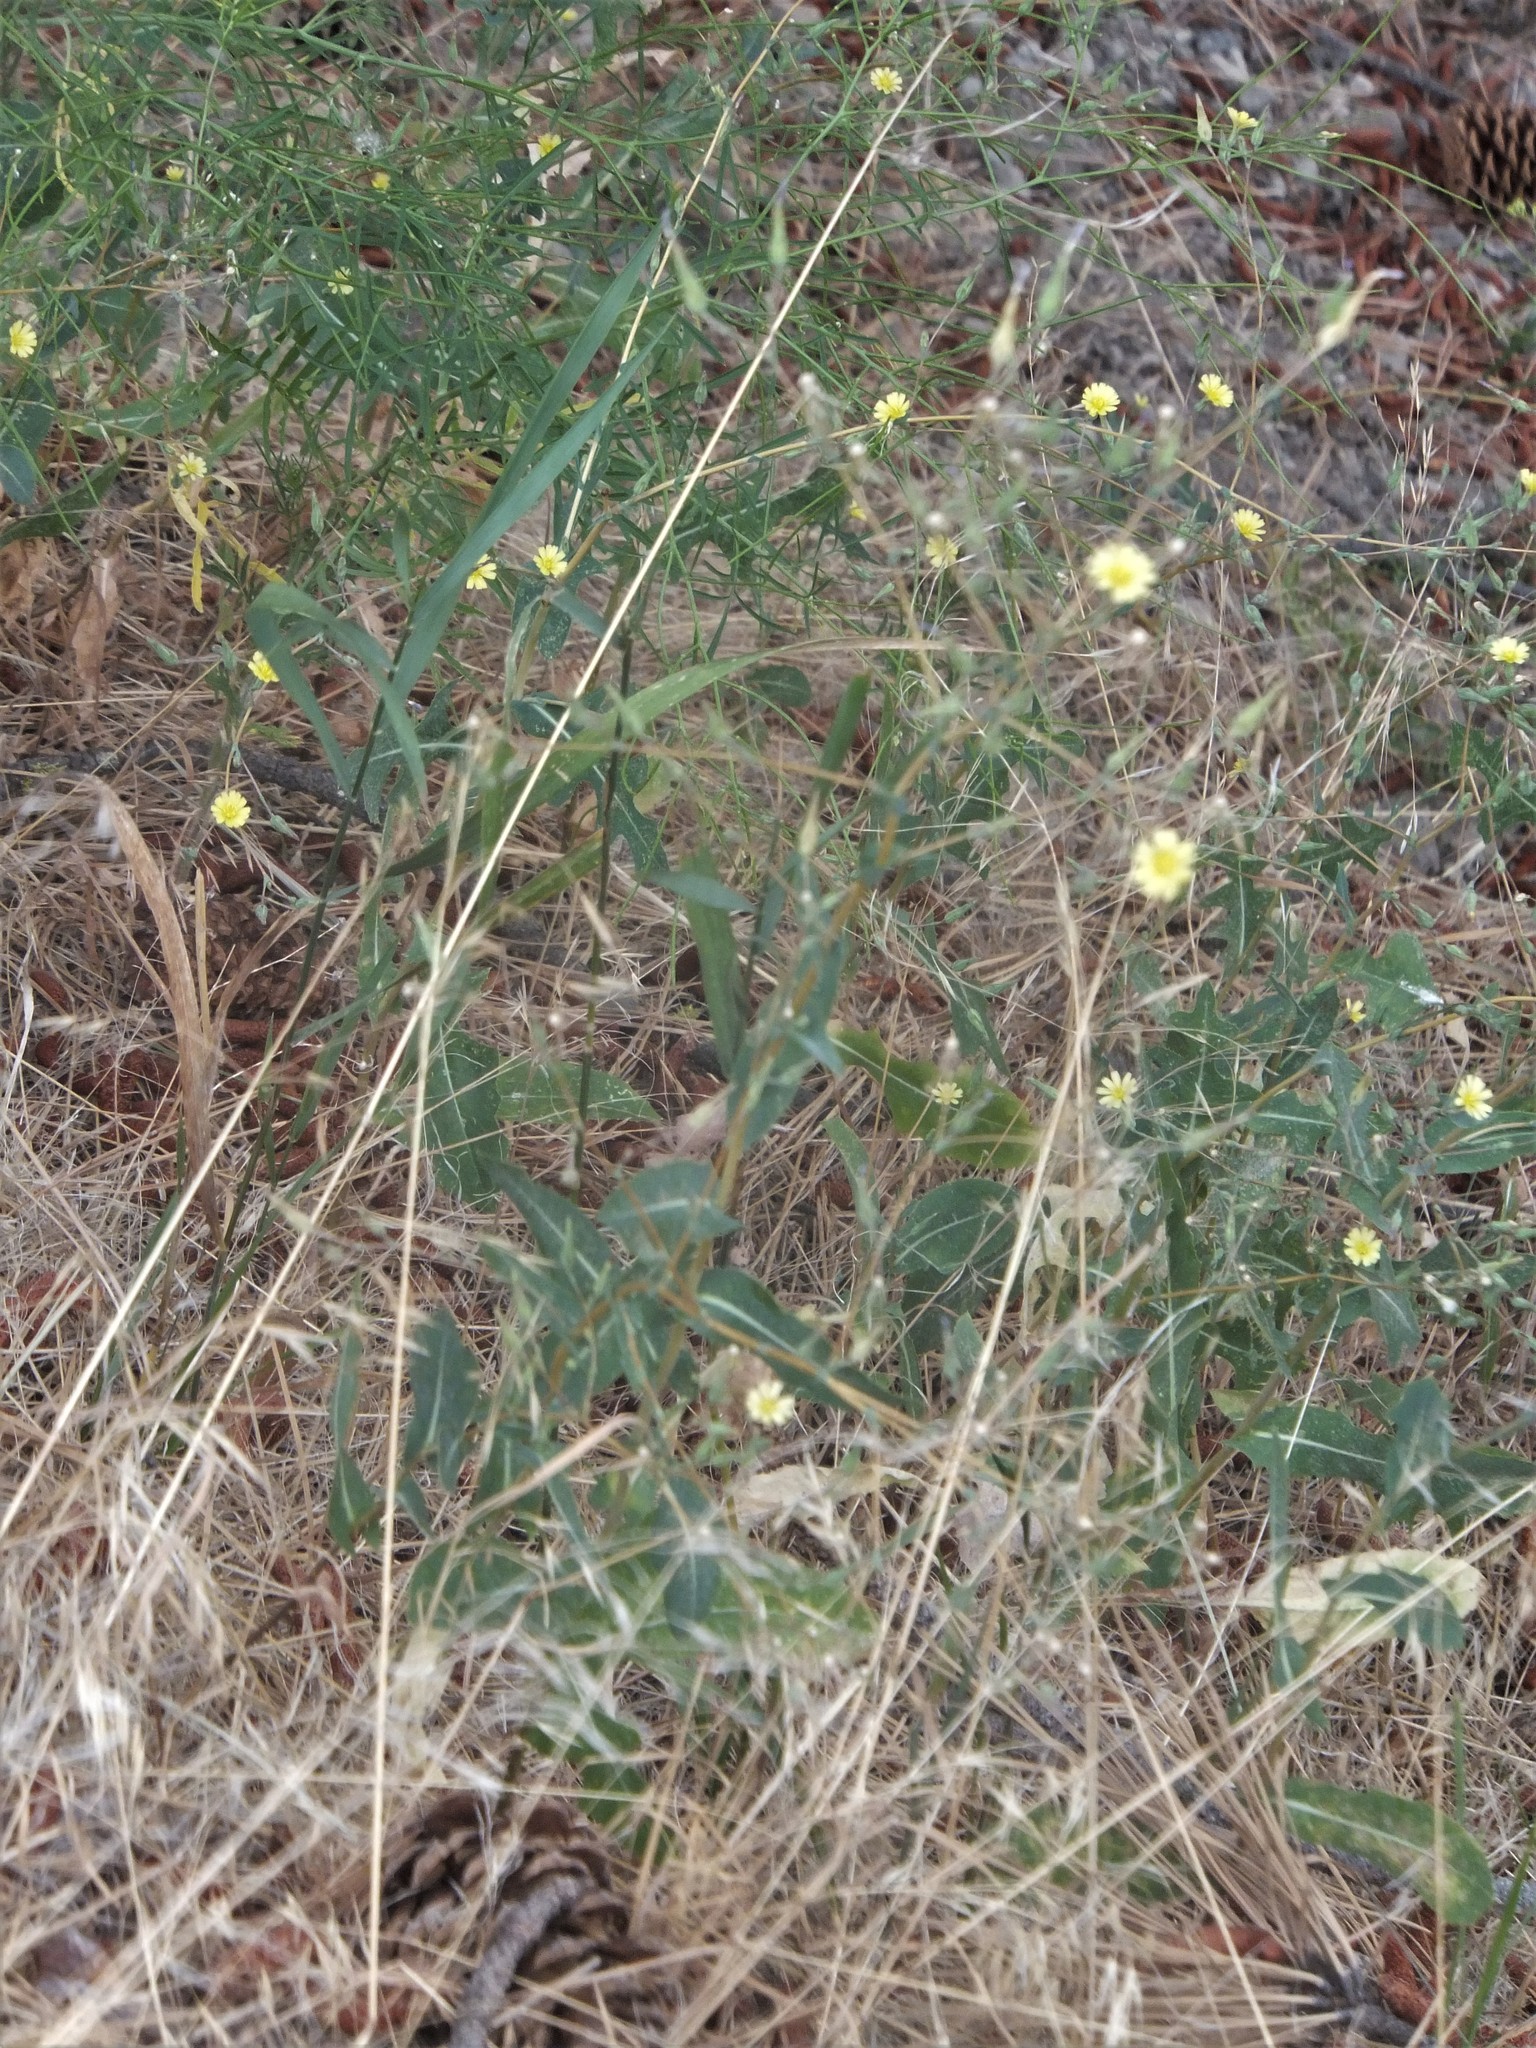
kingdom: Plantae
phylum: Tracheophyta
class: Magnoliopsida
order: Asterales
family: Asteraceae
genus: Lactuca
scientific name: Lactuca serriola
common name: Prickly lettuce
